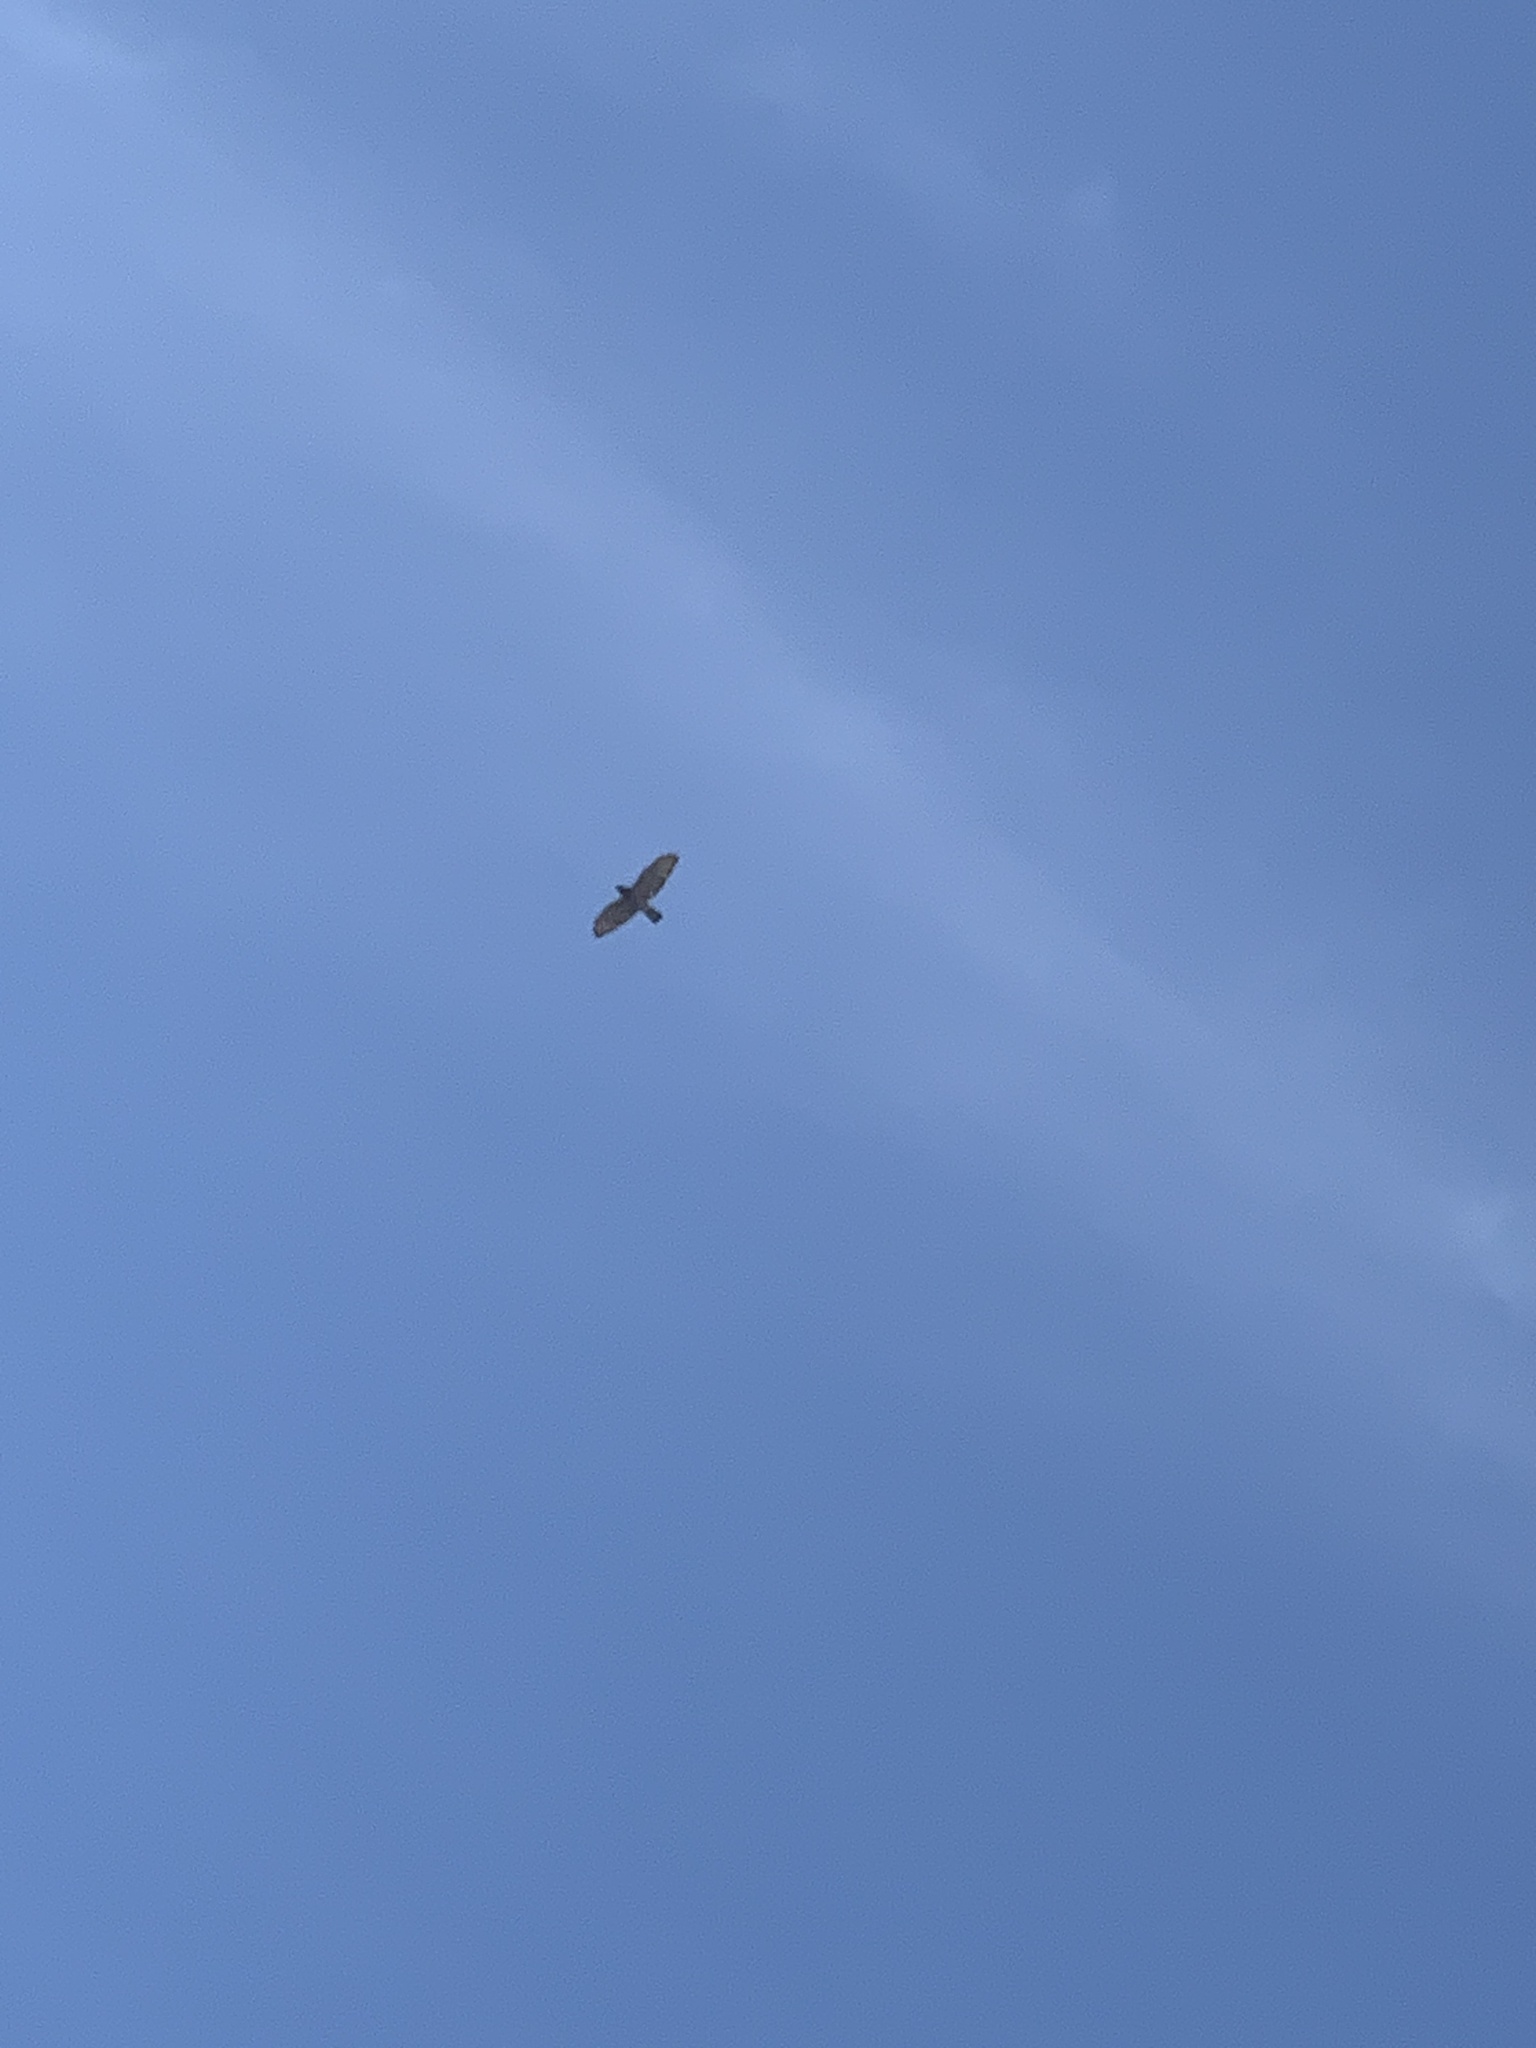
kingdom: Animalia
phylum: Chordata
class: Aves
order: Accipitriformes
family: Accipitridae
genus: Buteo
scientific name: Buteo platypterus
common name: Broad-winged hawk
